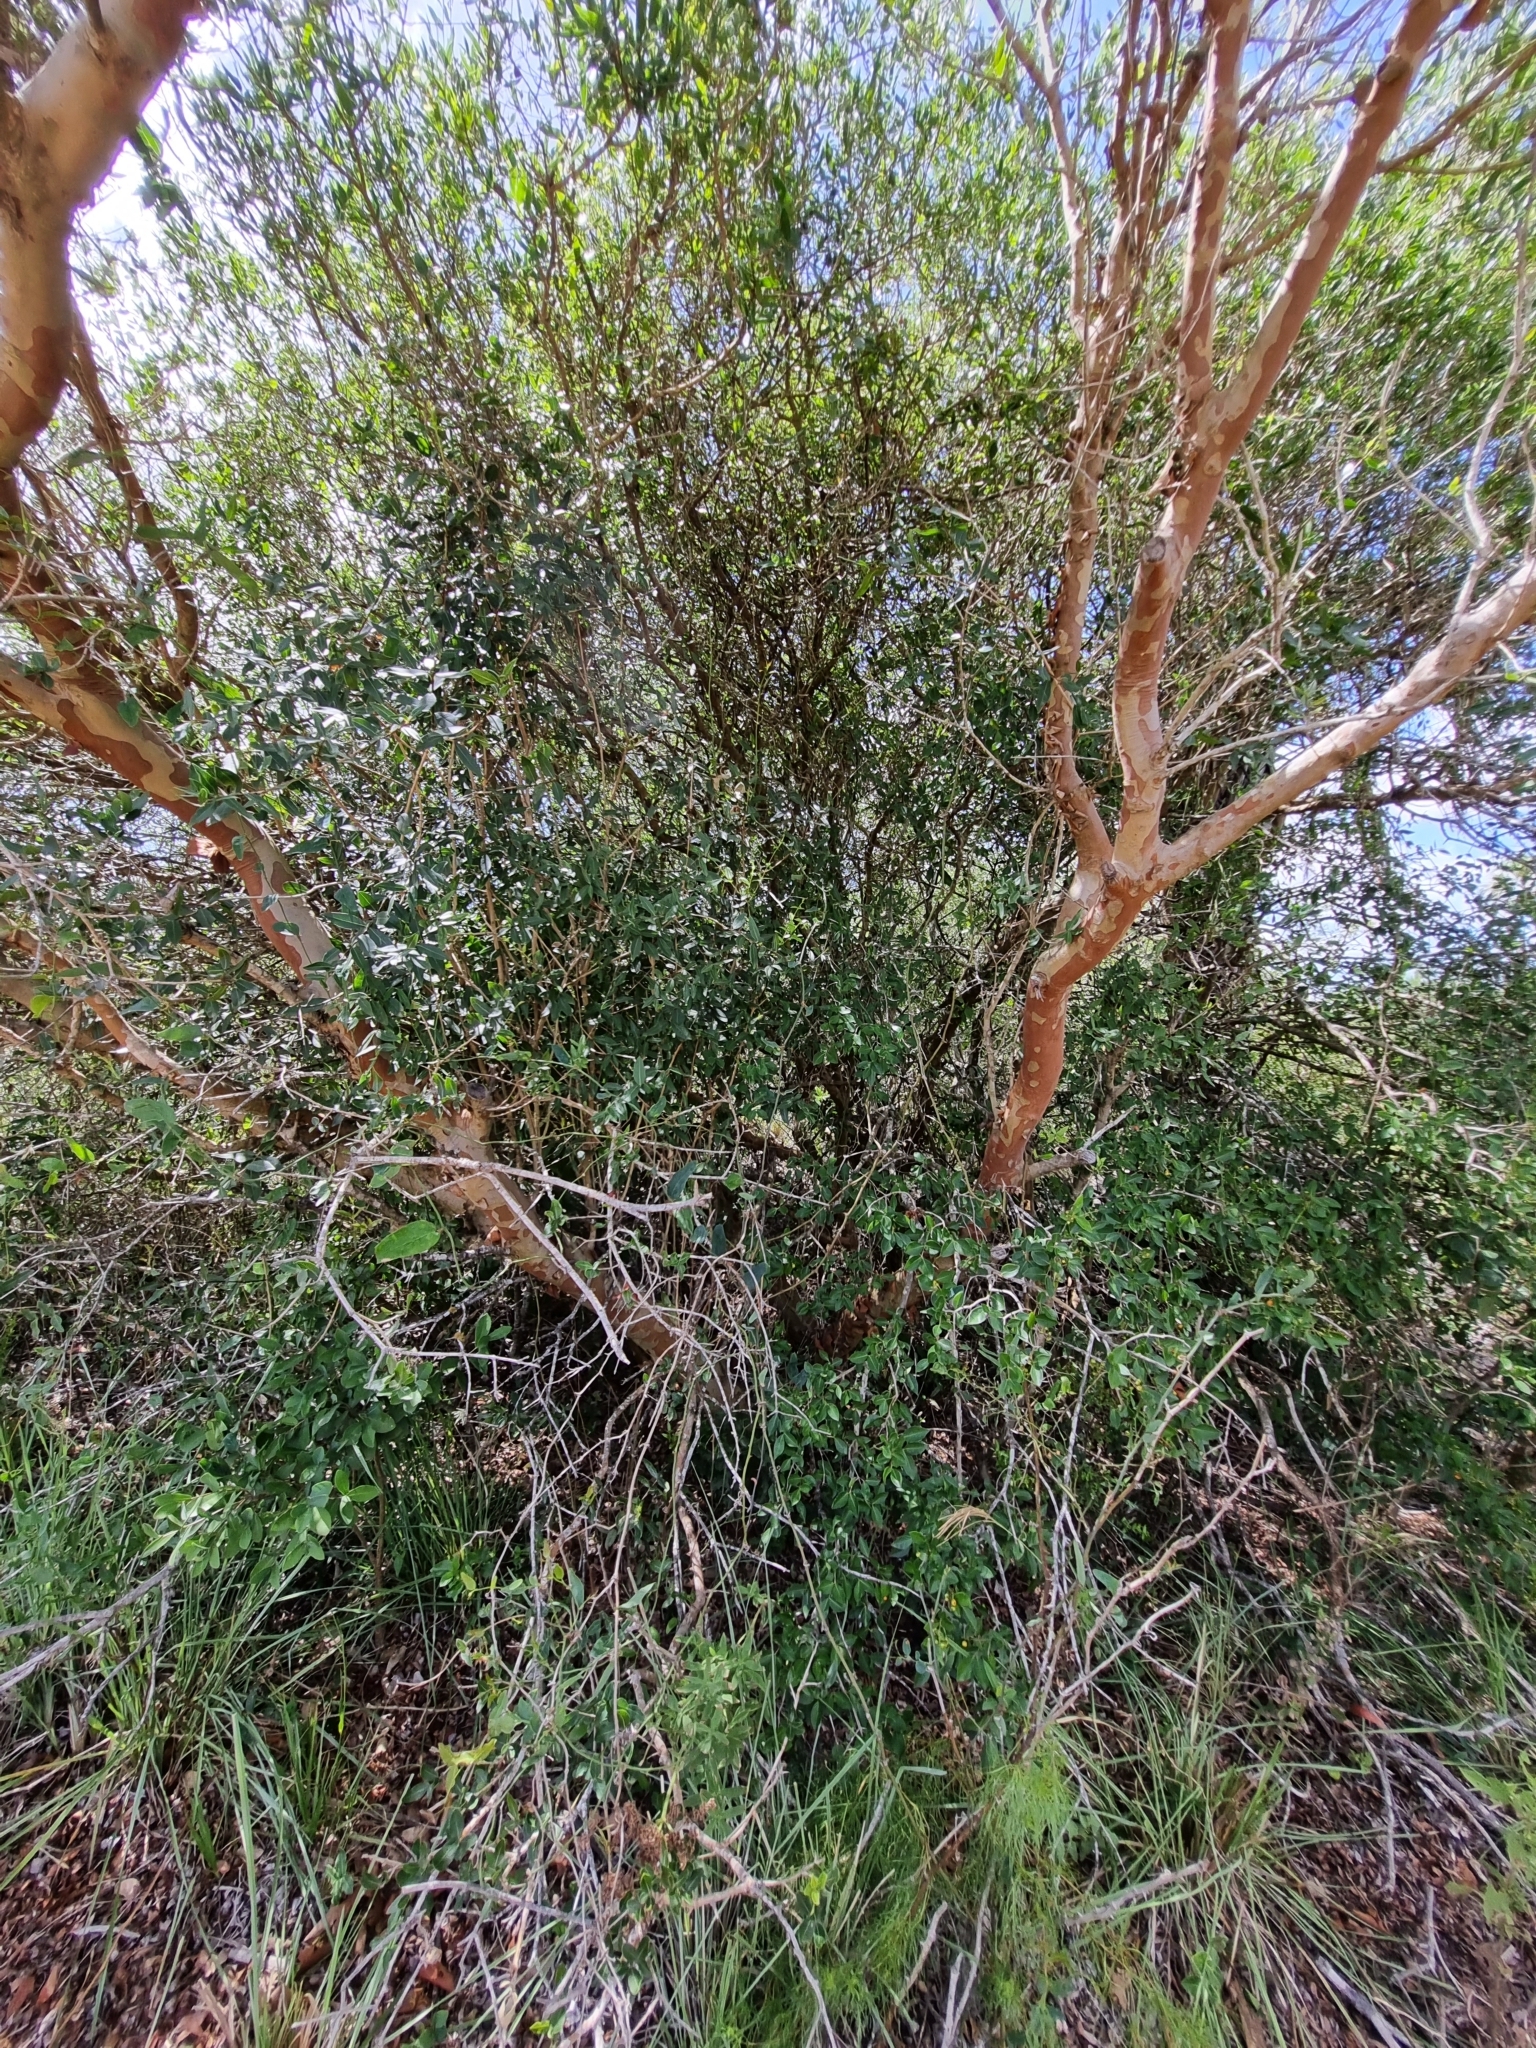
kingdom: Plantae
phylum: Tracheophyta
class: Magnoliopsida
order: Myrtales
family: Myrtaceae
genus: Myrcianthes
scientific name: Myrcianthes cisplatensis
